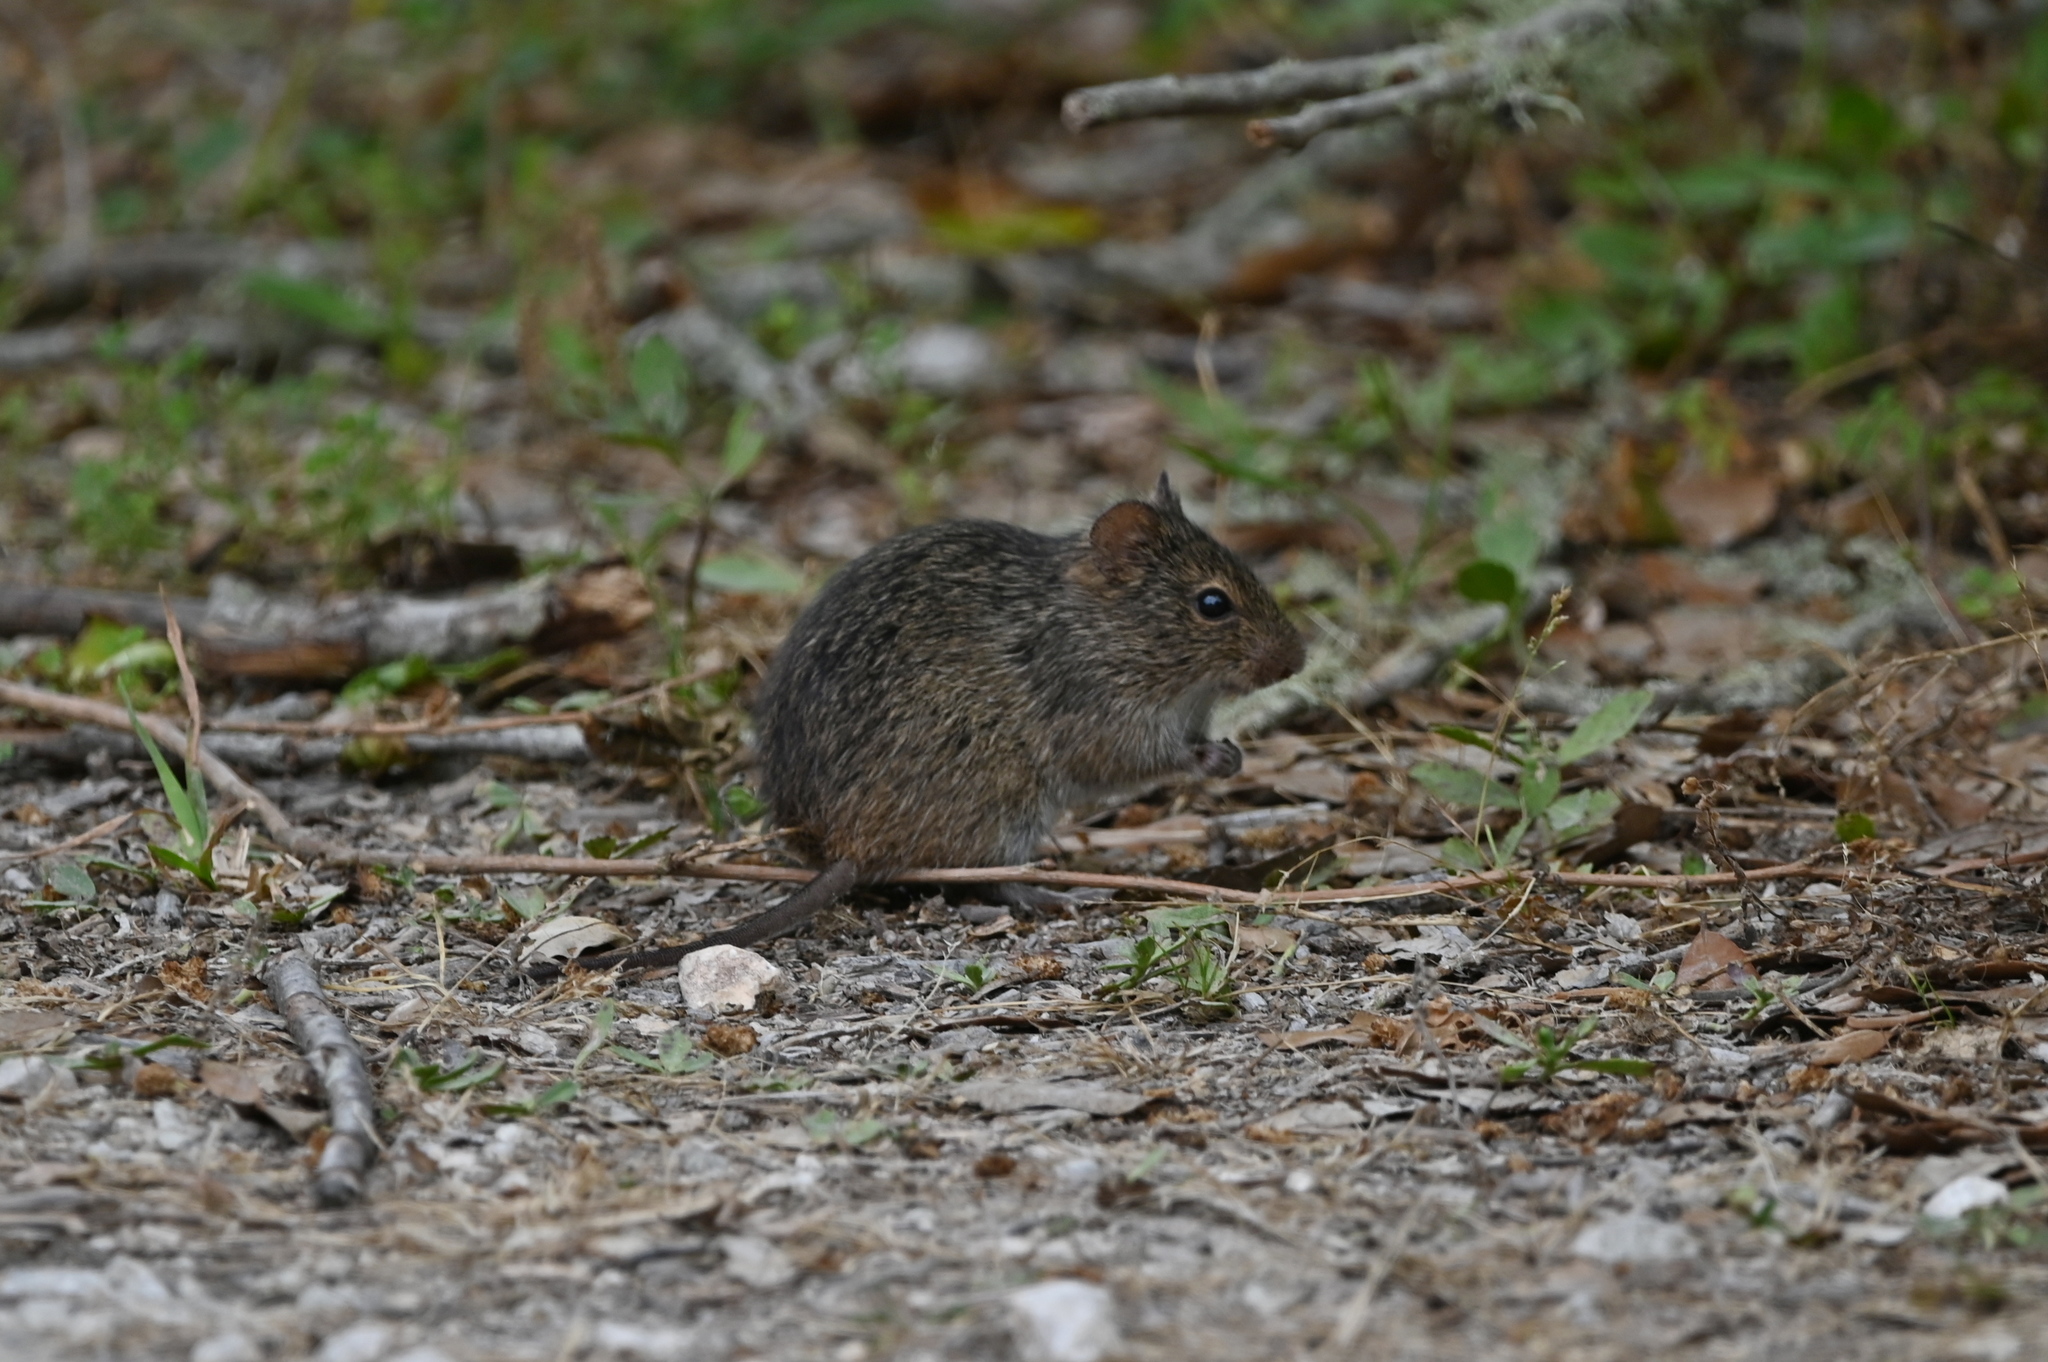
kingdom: Animalia
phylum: Chordata
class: Mammalia
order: Rodentia
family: Cricetidae
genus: Sigmodon
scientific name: Sigmodon hispidus
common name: Hispid cotton rat
